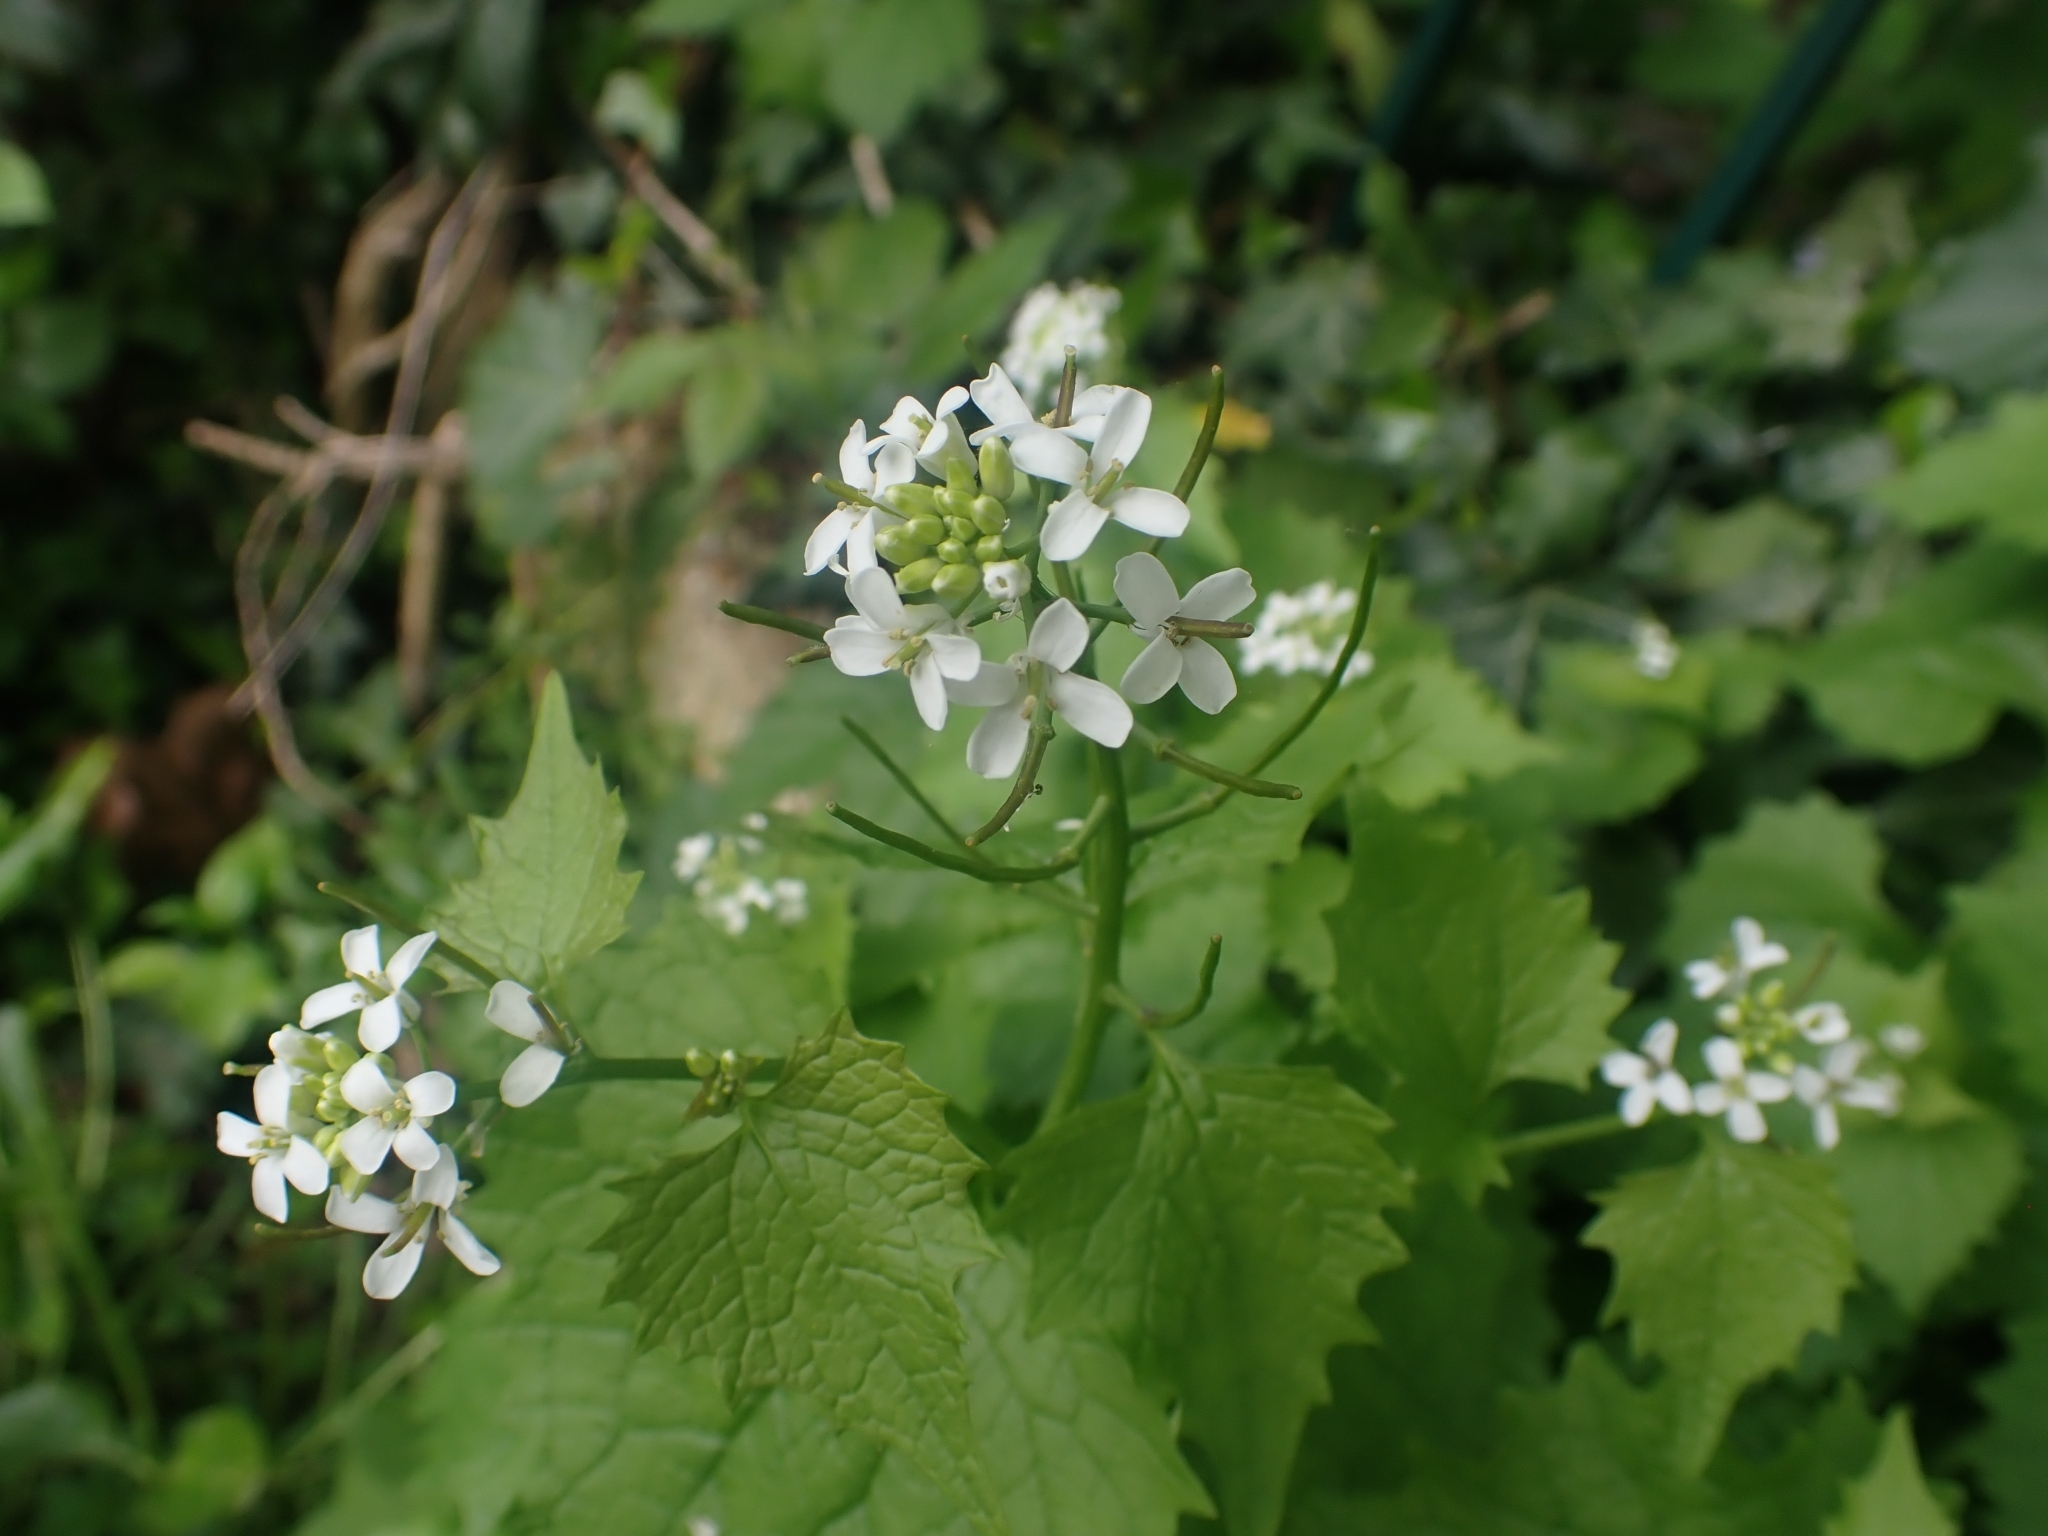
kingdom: Plantae
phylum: Tracheophyta
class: Magnoliopsida
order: Brassicales
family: Brassicaceae
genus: Alliaria
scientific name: Alliaria petiolata
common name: Garlic mustard
